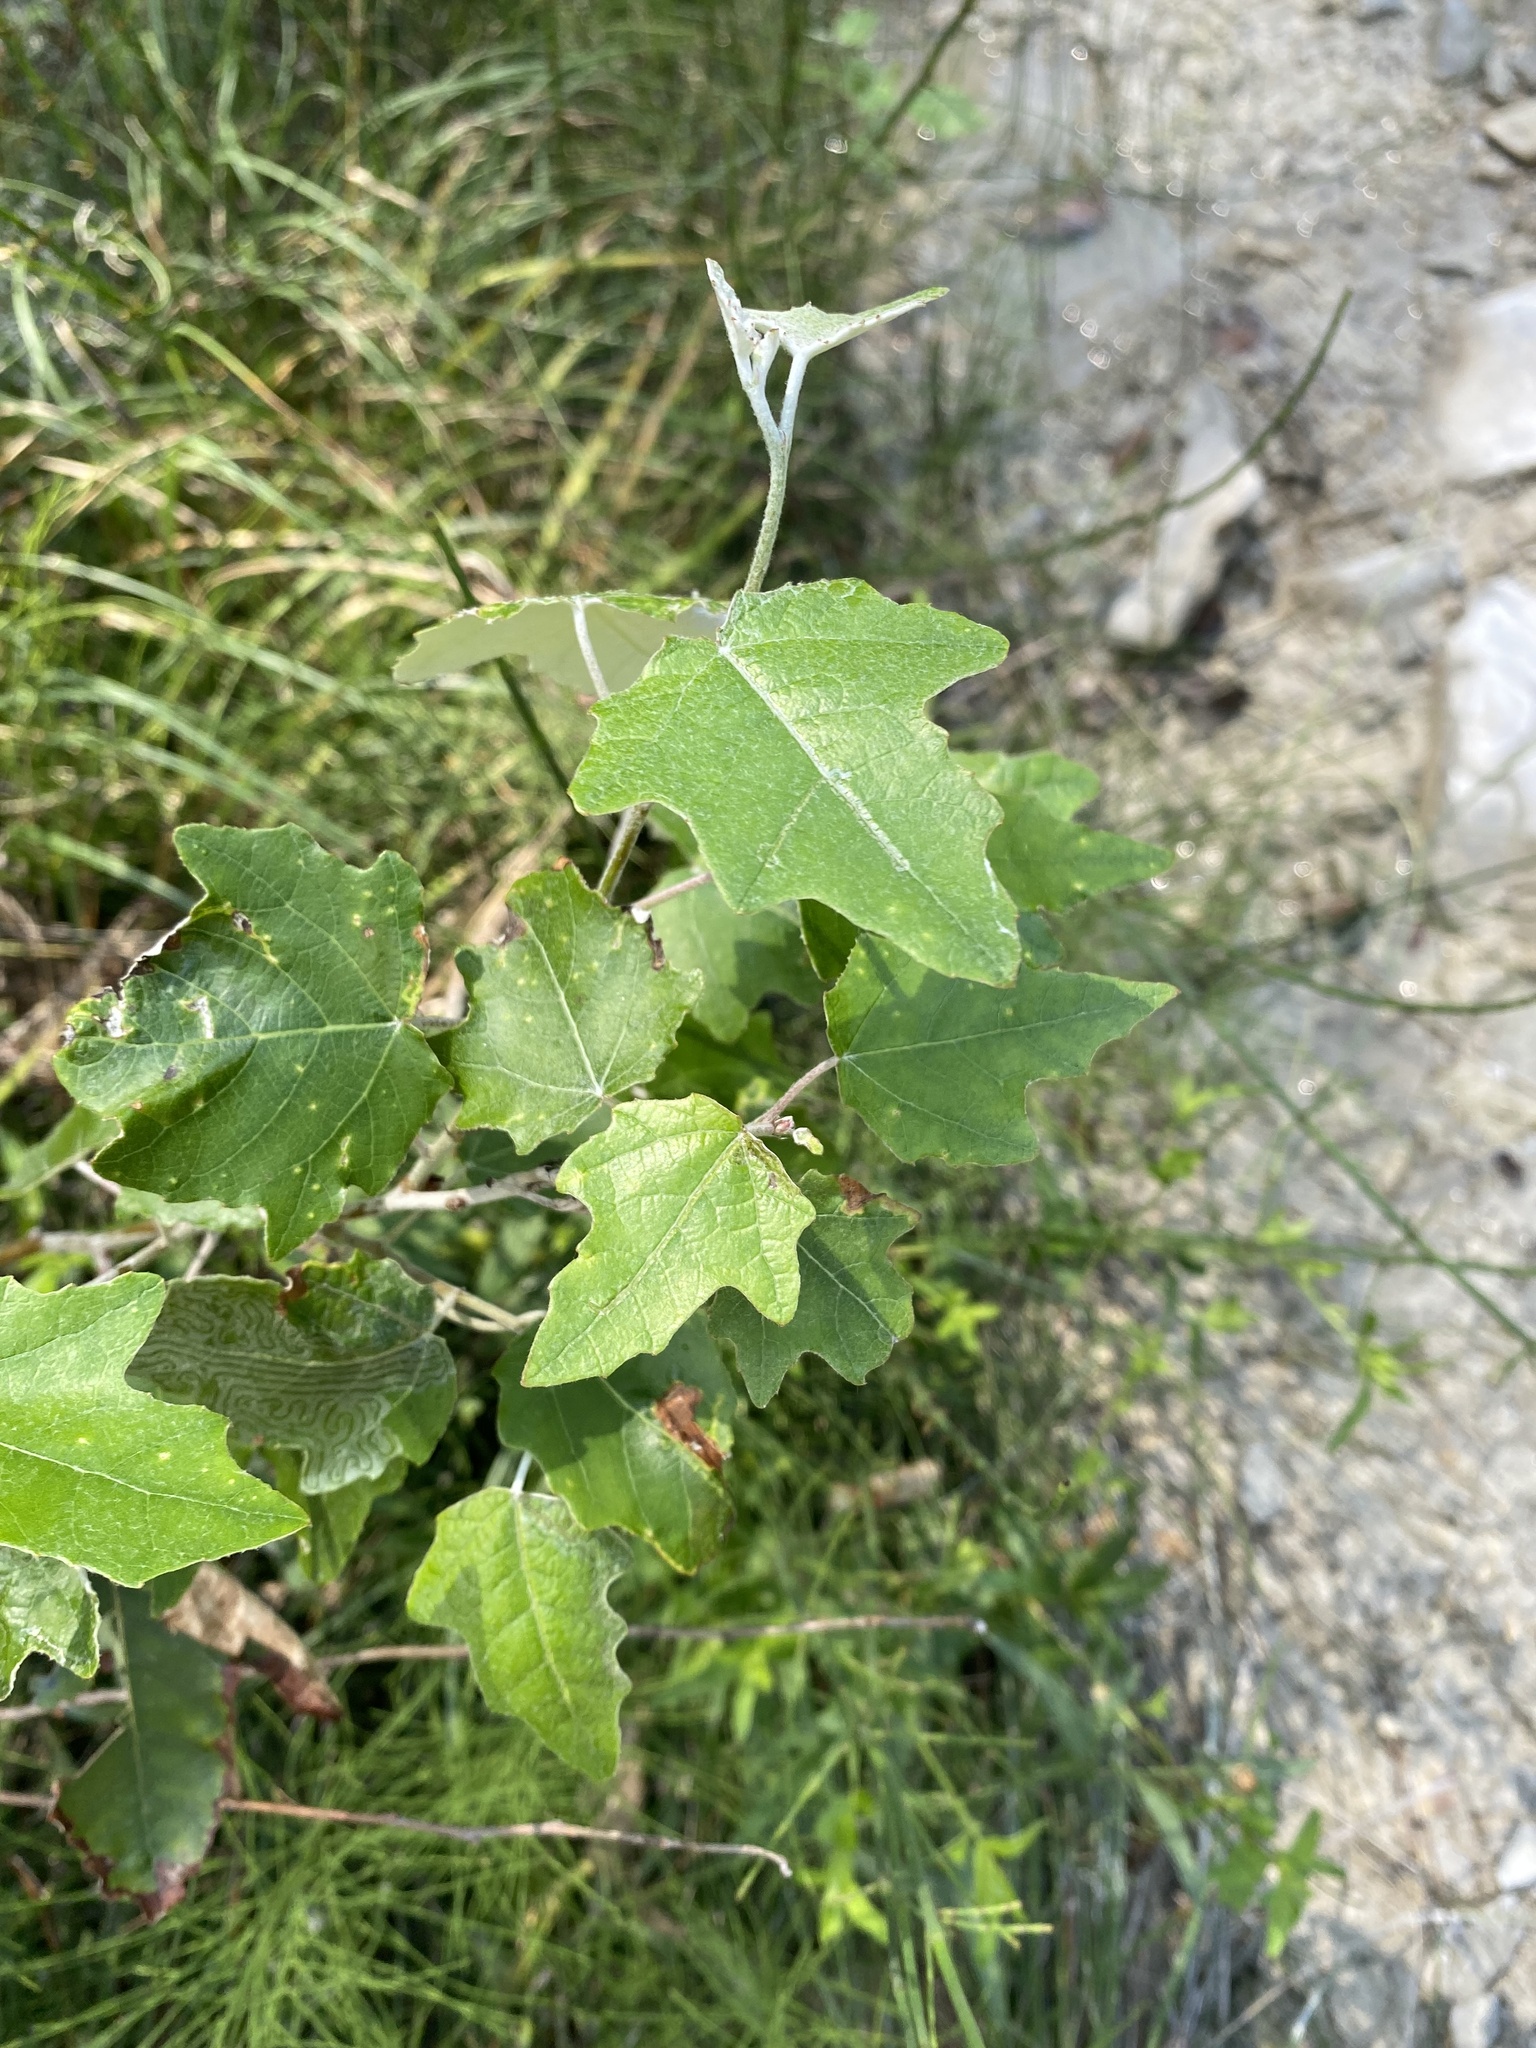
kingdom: Plantae
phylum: Tracheophyta
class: Magnoliopsida
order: Malpighiales
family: Salicaceae
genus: Populus
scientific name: Populus alba
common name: White poplar
